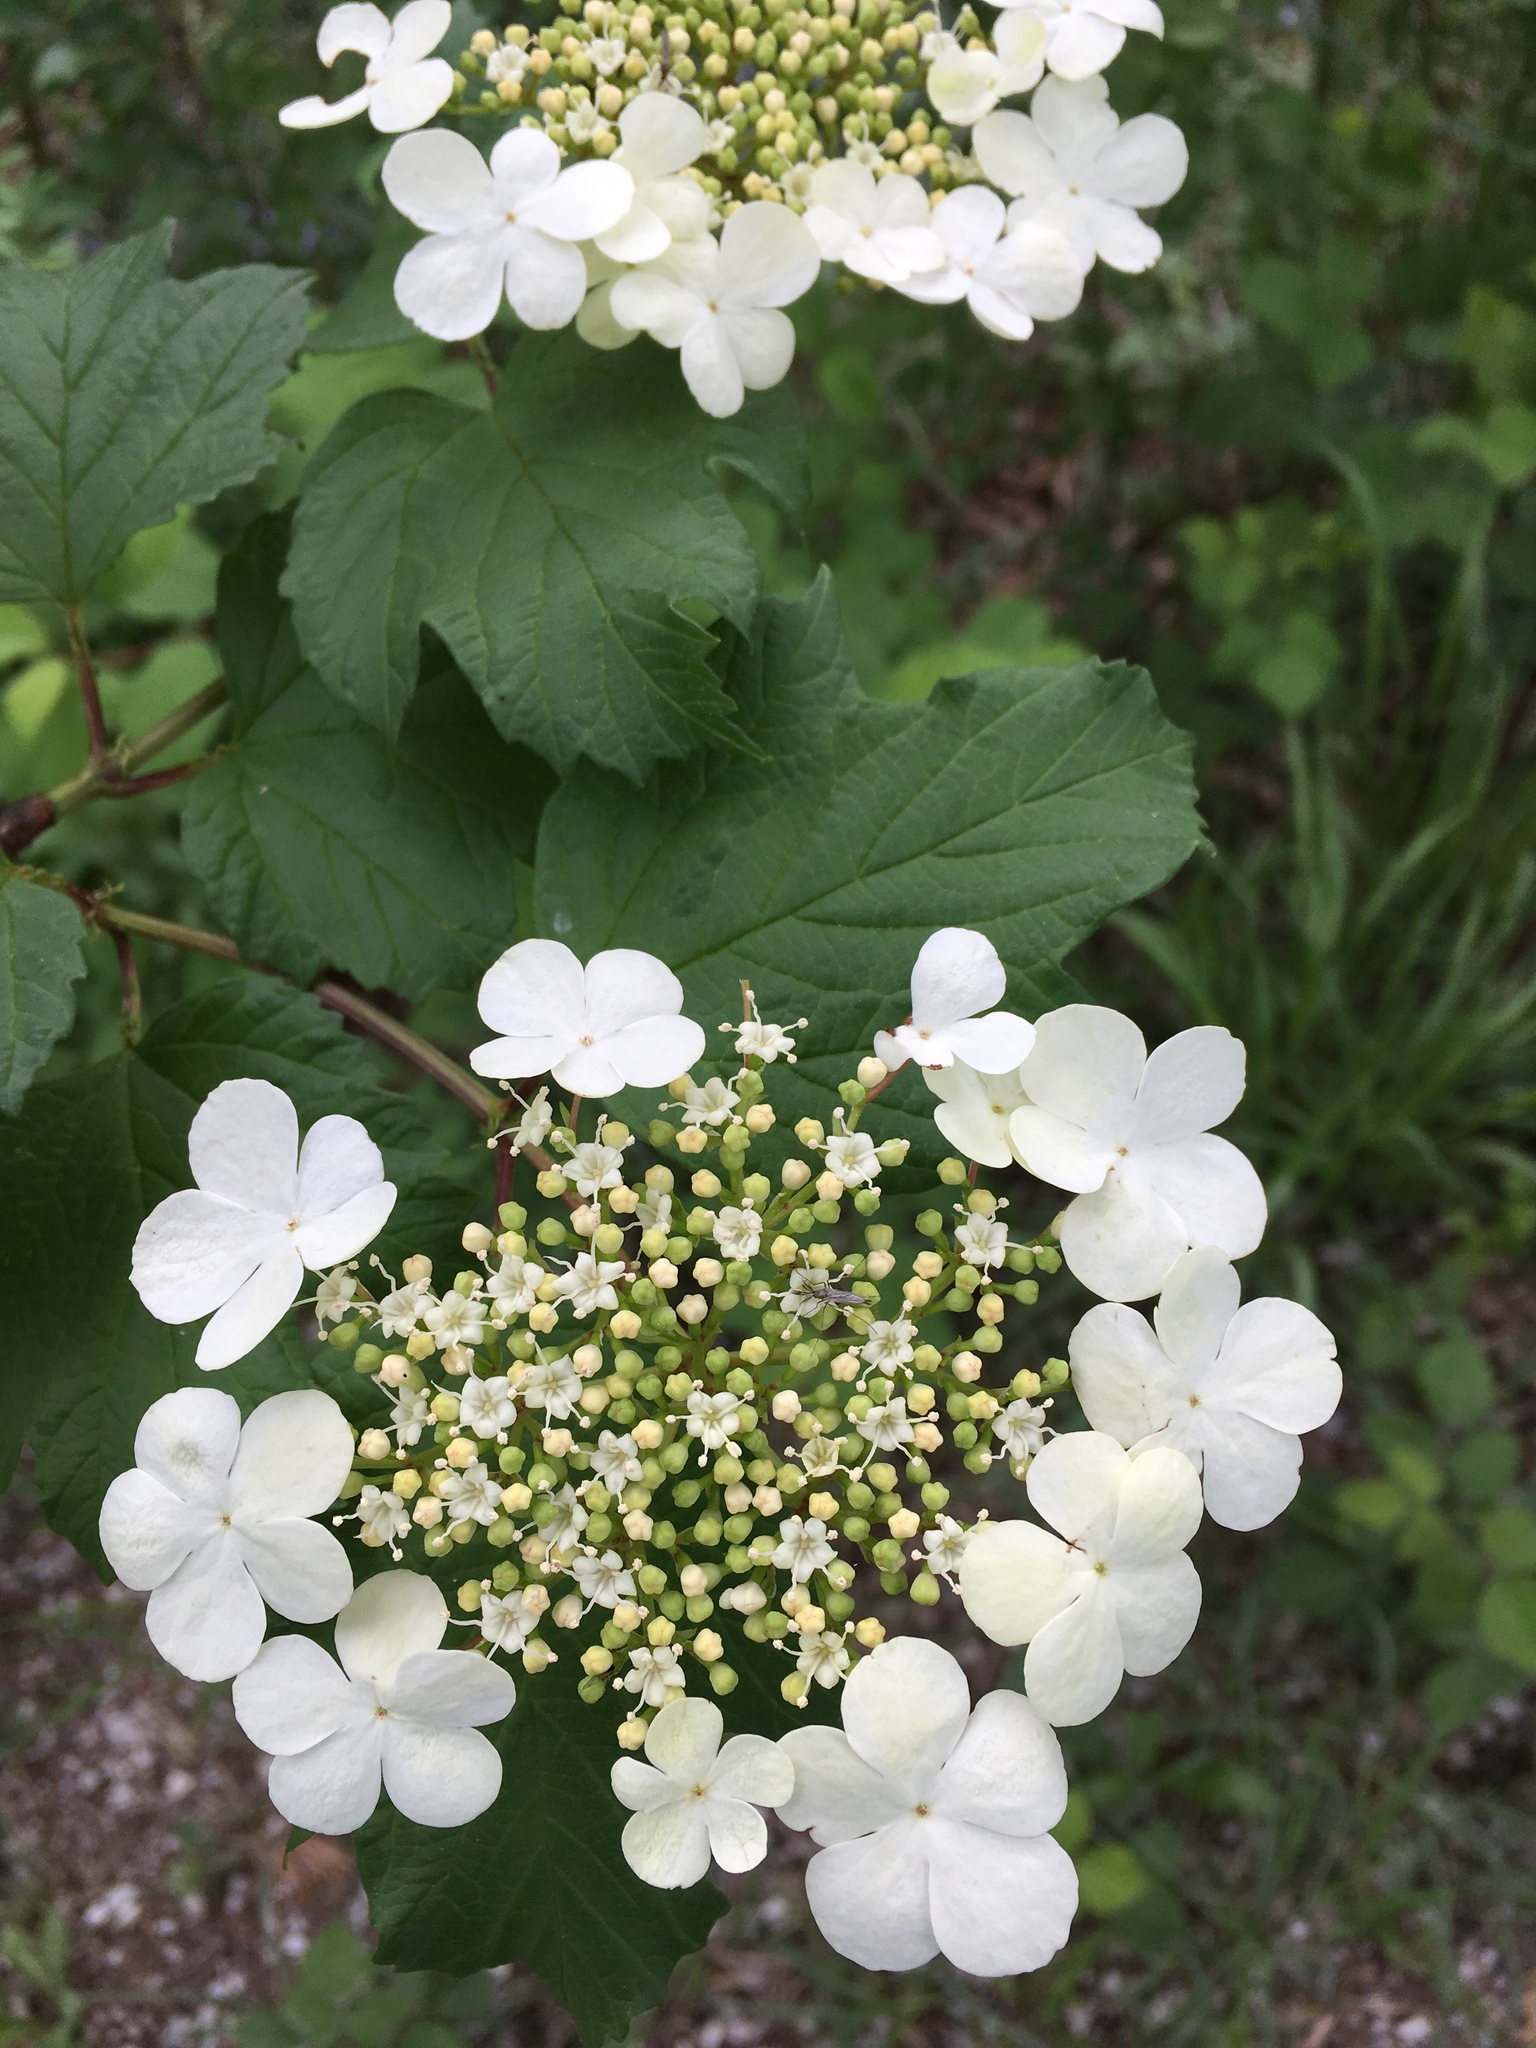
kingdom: Plantae
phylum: Tracheophyta
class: Magnoliopsida
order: Dipsacales
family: Viburnaceae
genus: Viburnum
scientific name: Viburnum opulus
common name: Guelder-rose
